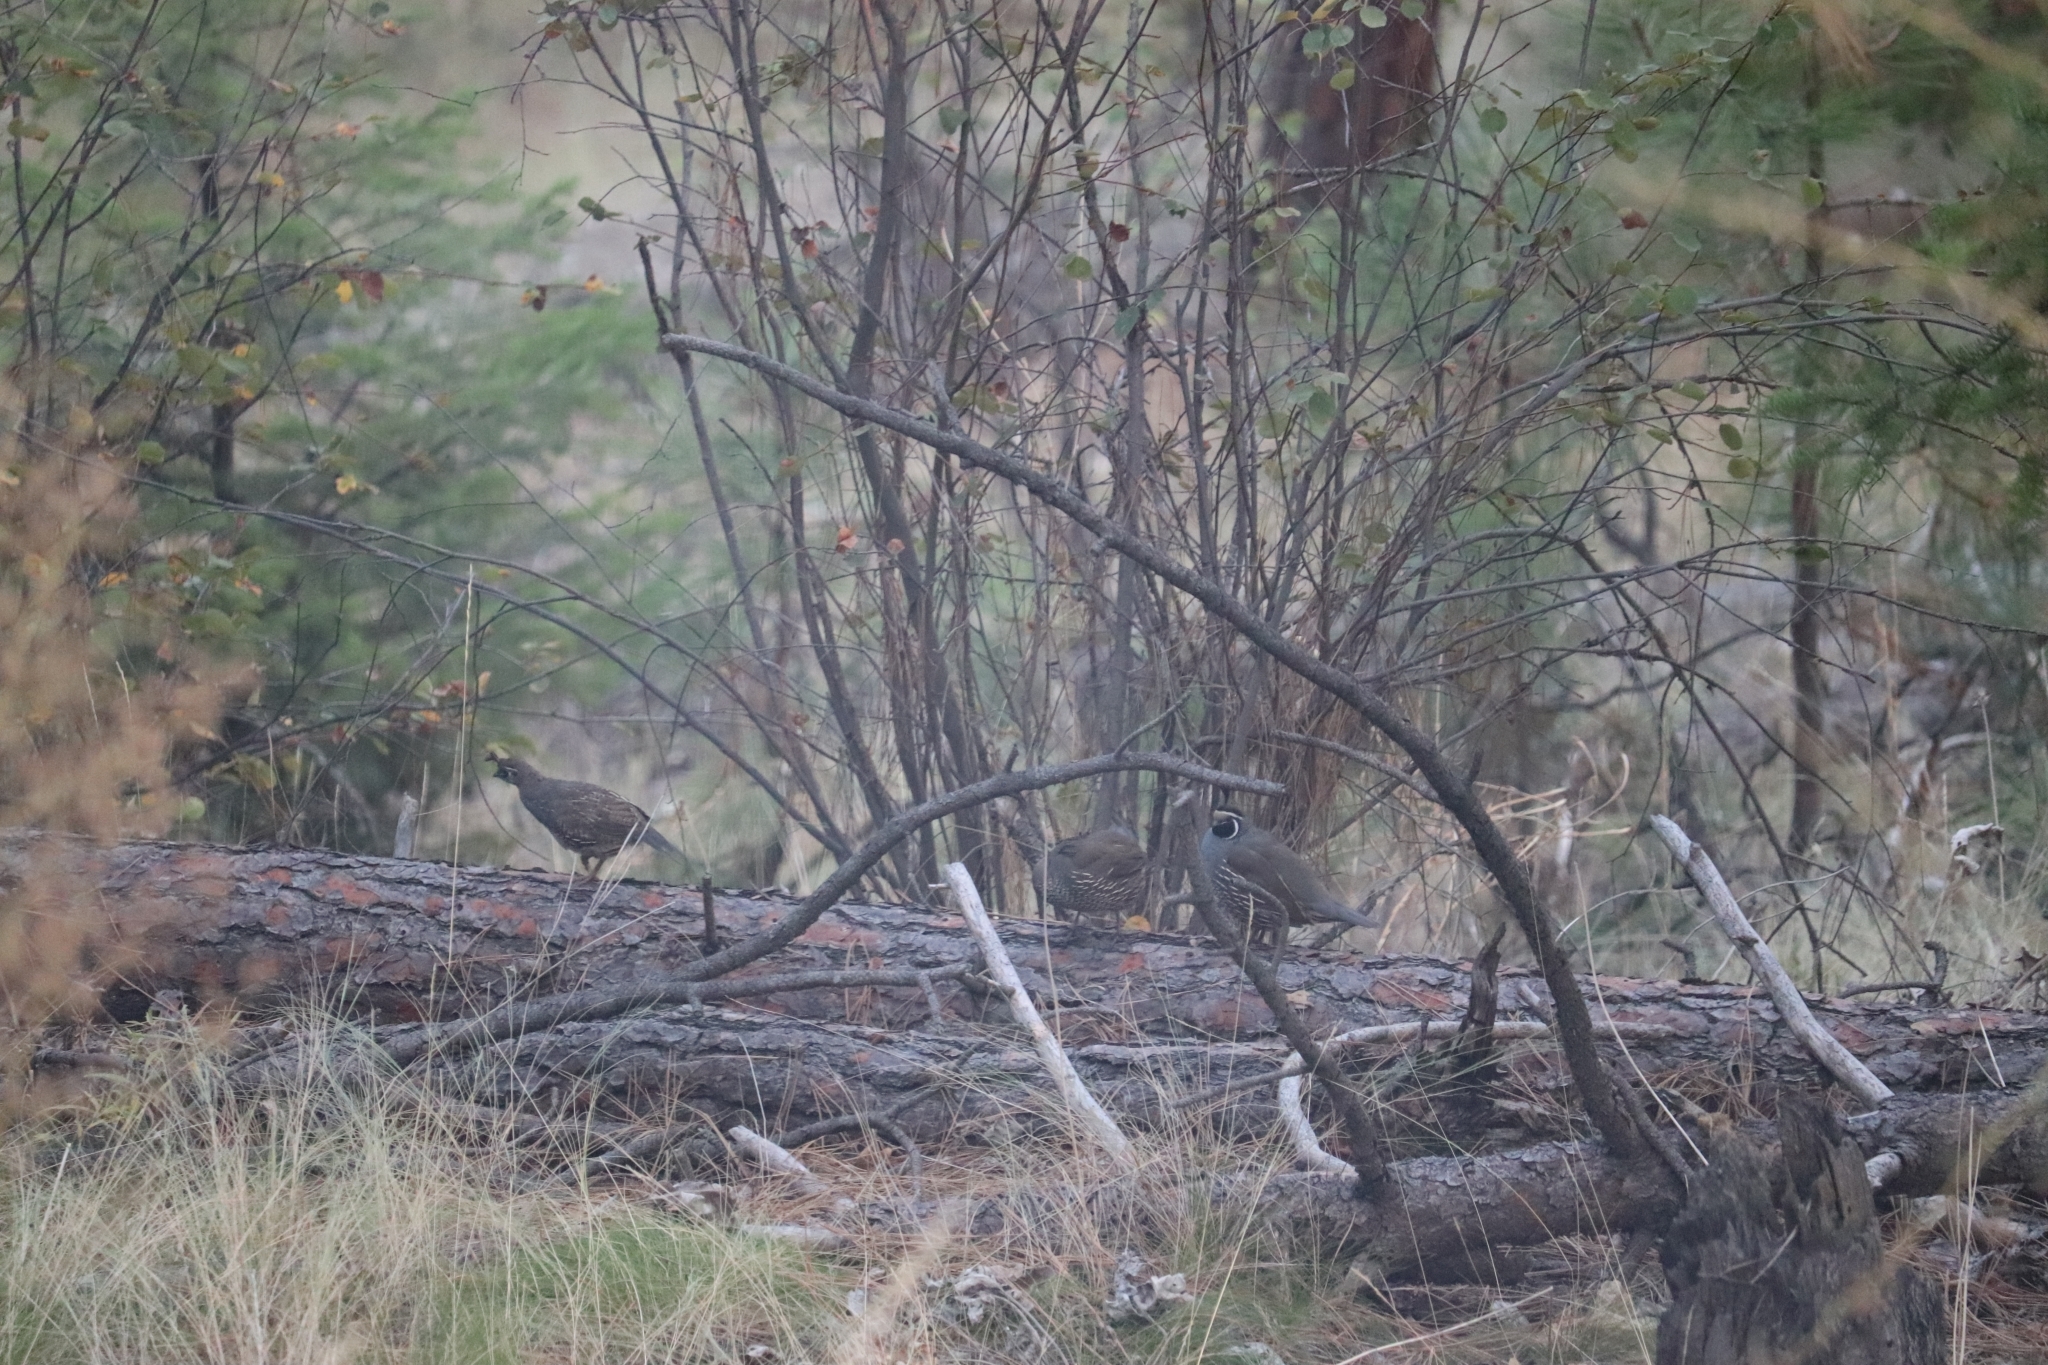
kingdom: Animalia
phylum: Chordata
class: Aves
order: Galliformes
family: Odontophoridae
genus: Callipepla
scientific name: Callipepla californica
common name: California quail
